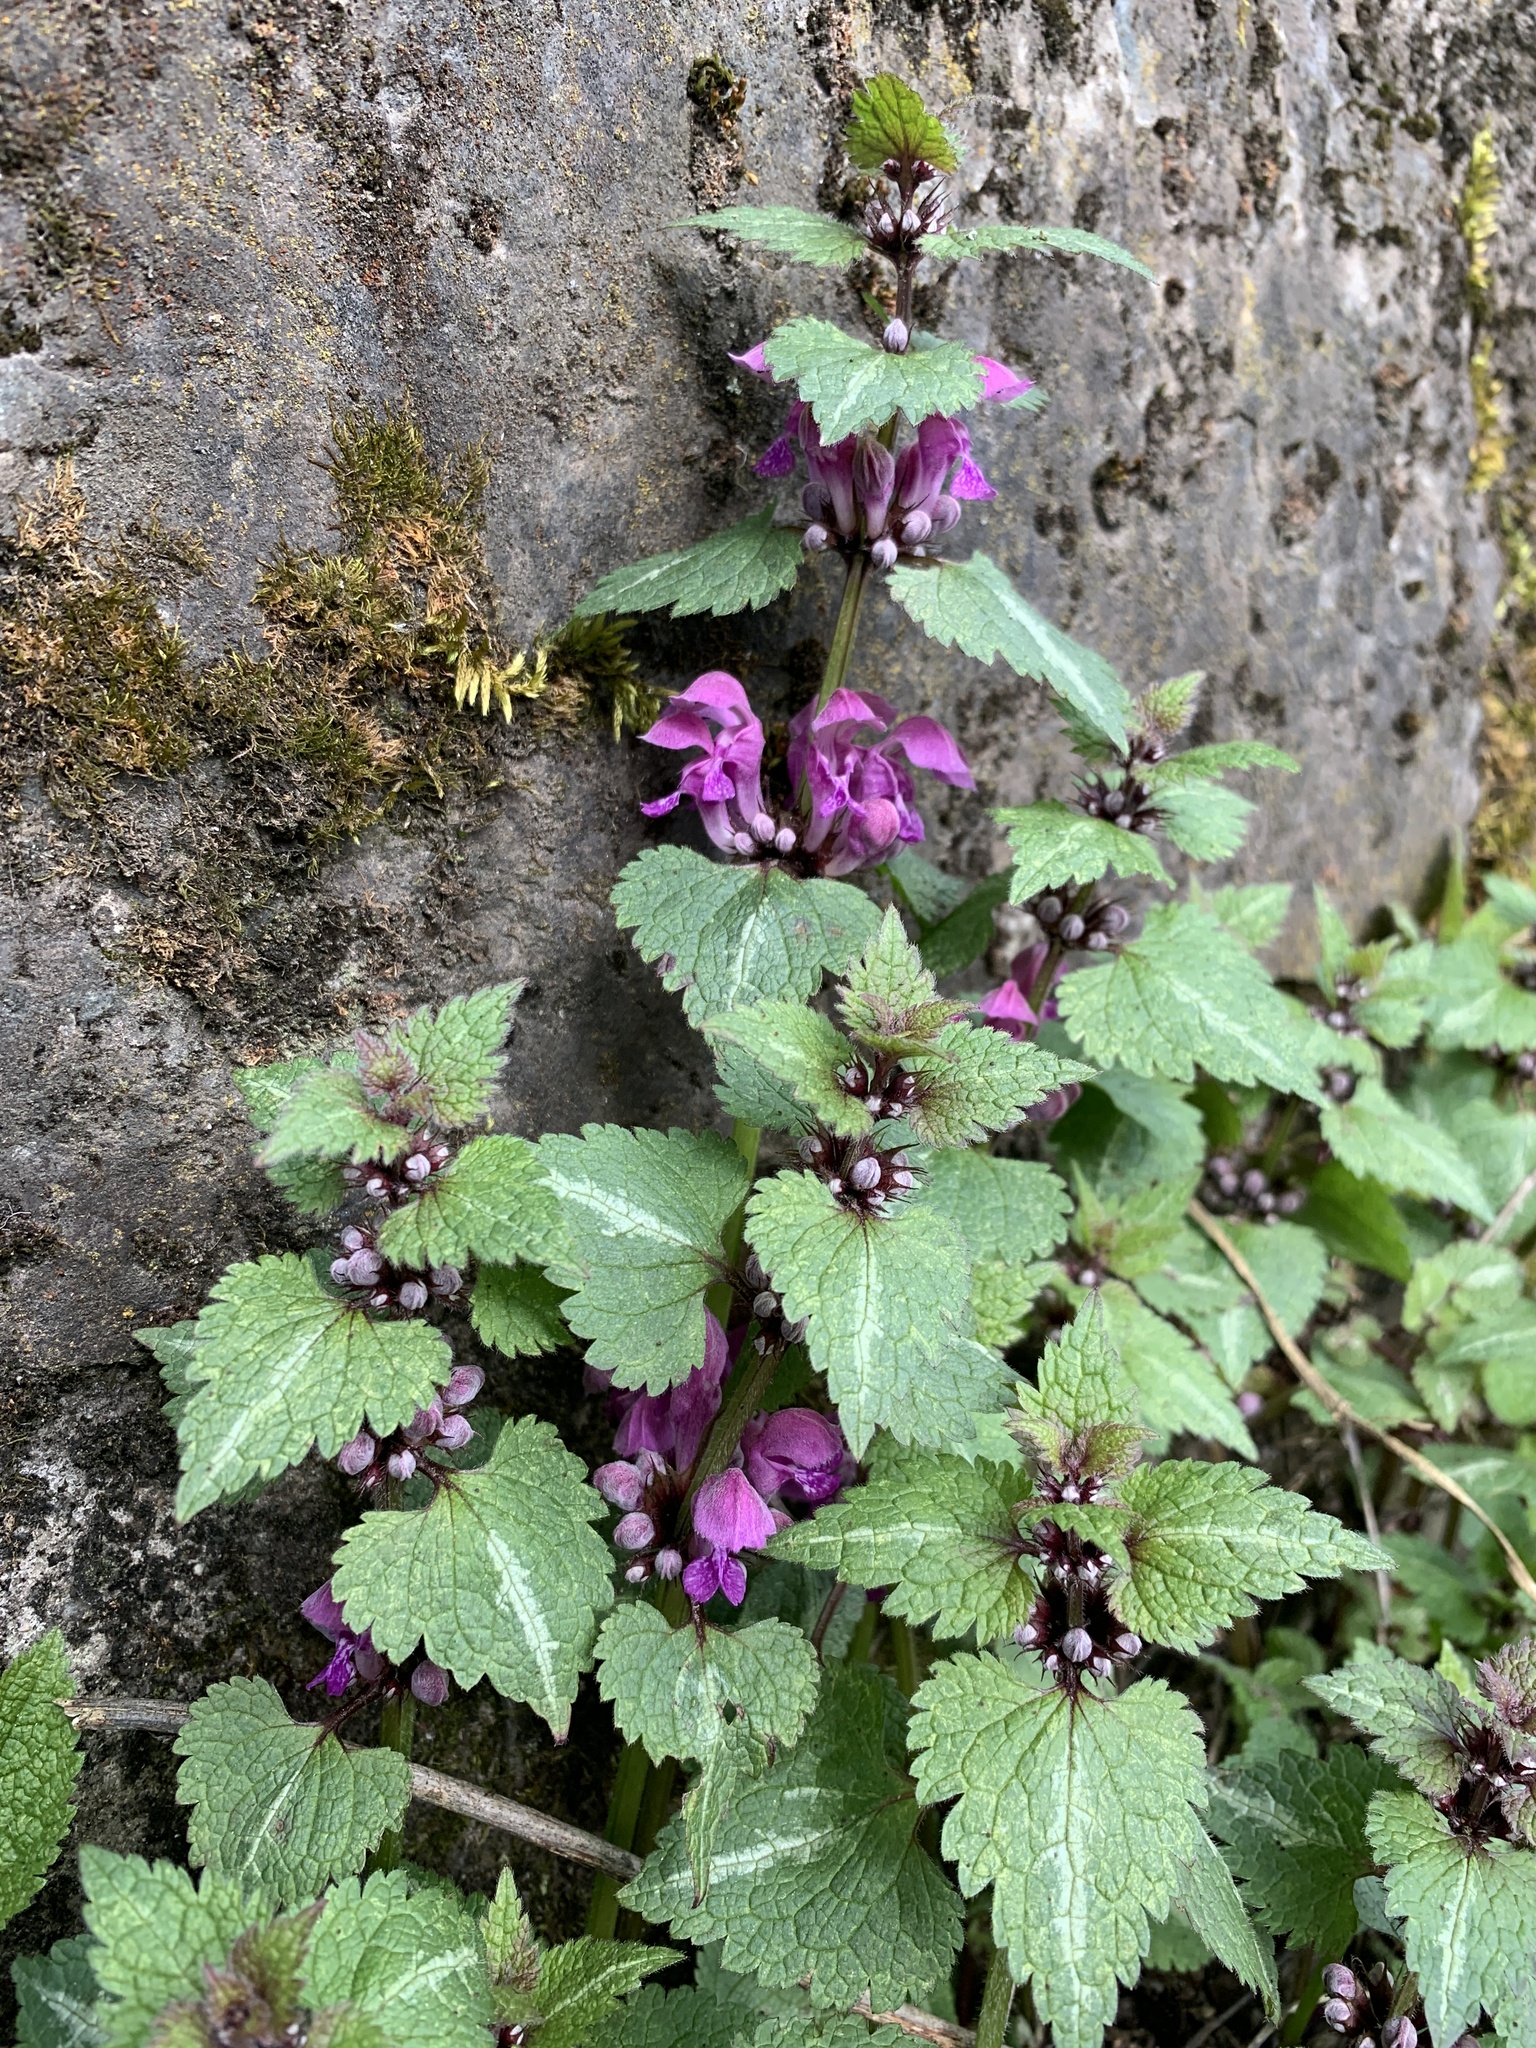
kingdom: Plantae
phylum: Tracheophyta
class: Magnoliopsida
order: Lamiales
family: Lamiaceae
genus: Lamium
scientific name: Lamium maculatum
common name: Spotted dead-nettle
